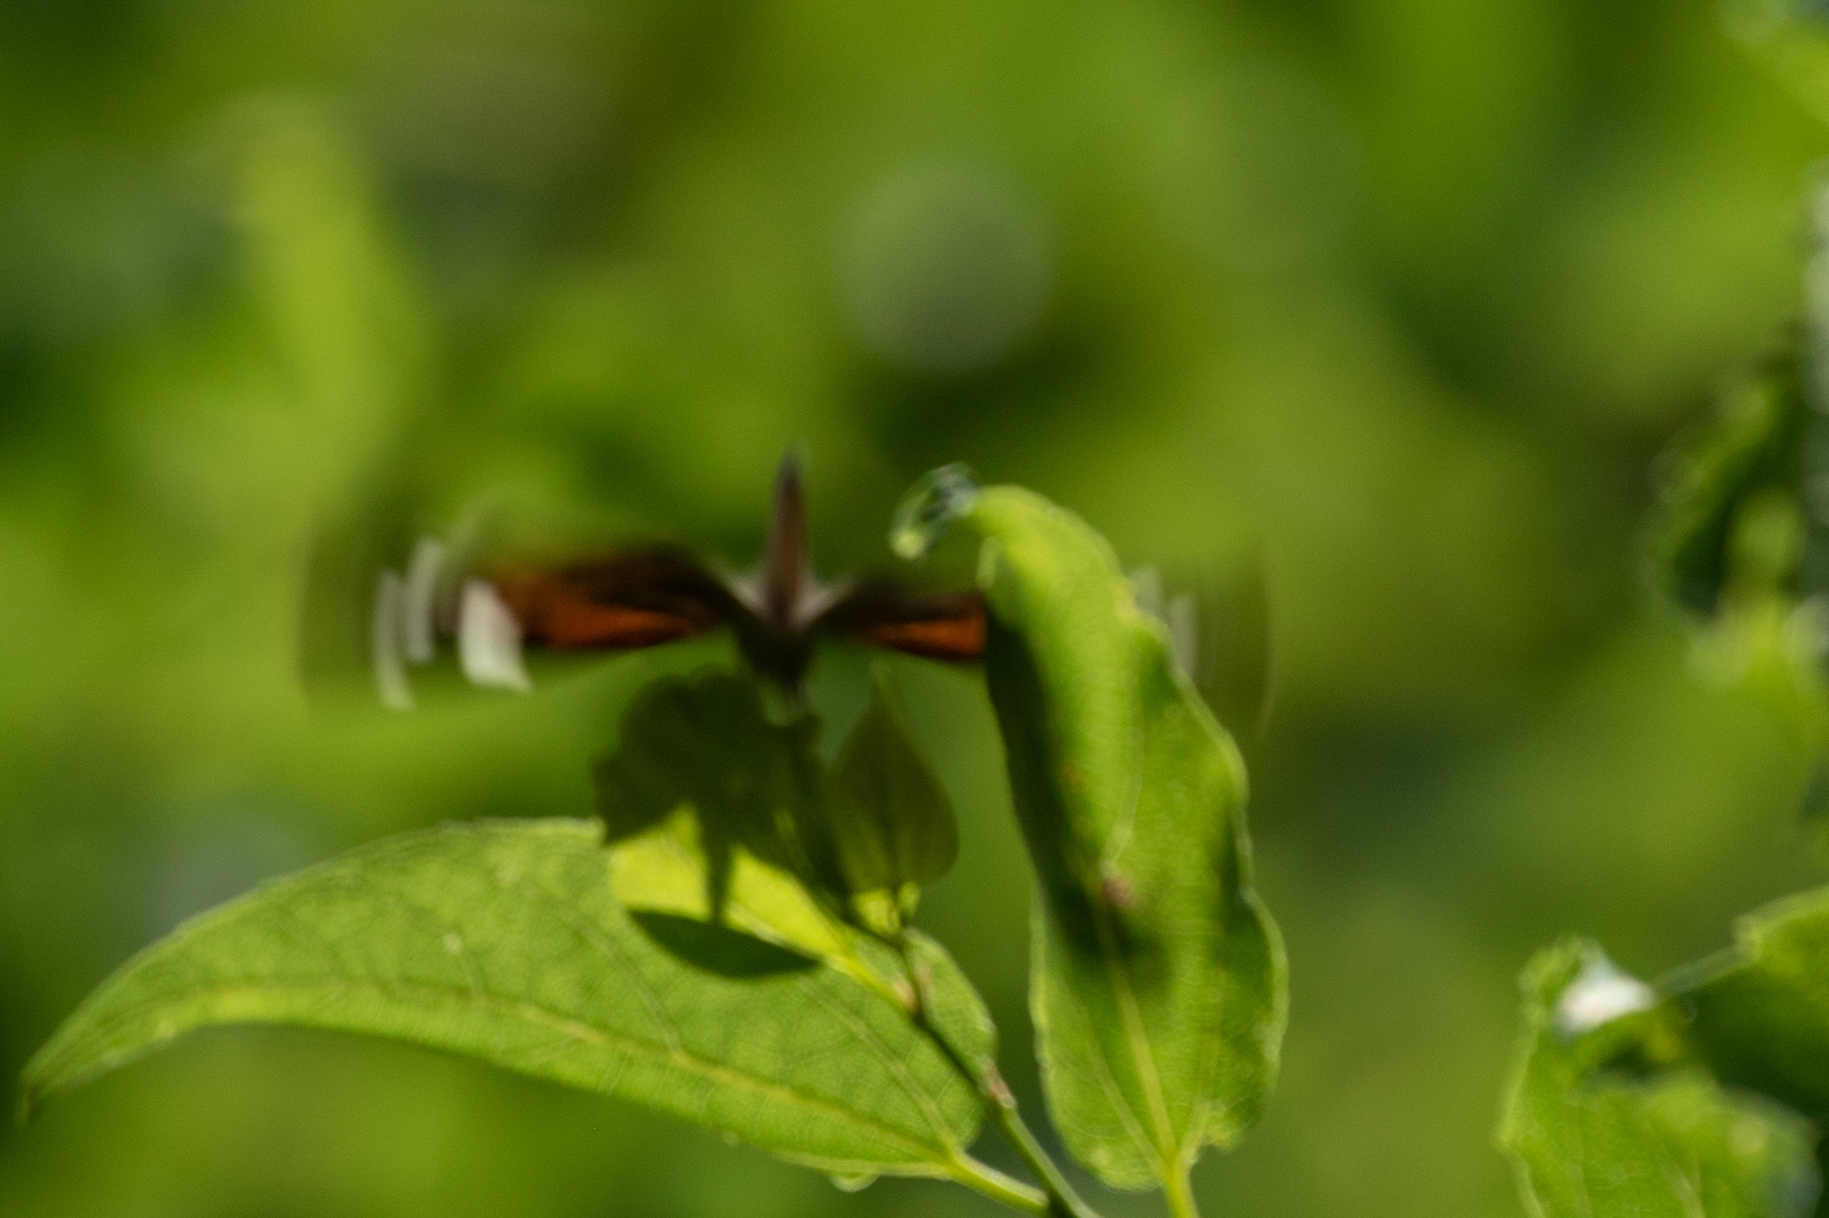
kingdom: Animalia
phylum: Arthropoda
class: Insecta
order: Lepidoptera
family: Nymphalidae
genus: Libytheana
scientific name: Libytheana carinenta
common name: American snout
